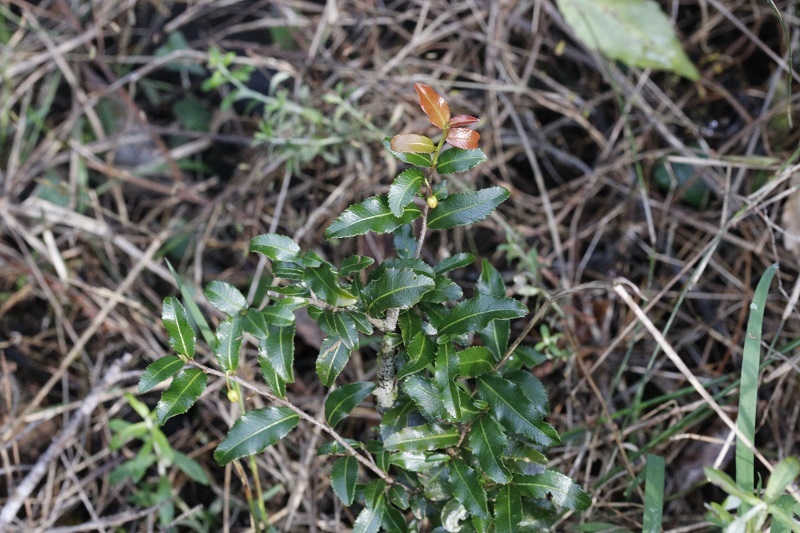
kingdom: Plantae
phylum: Tracheophyta
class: Magnoliopsida
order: Malpighiales
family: Ochnaceae
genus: Ochna
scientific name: Ochna serrulata
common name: Mickey mouse plant
